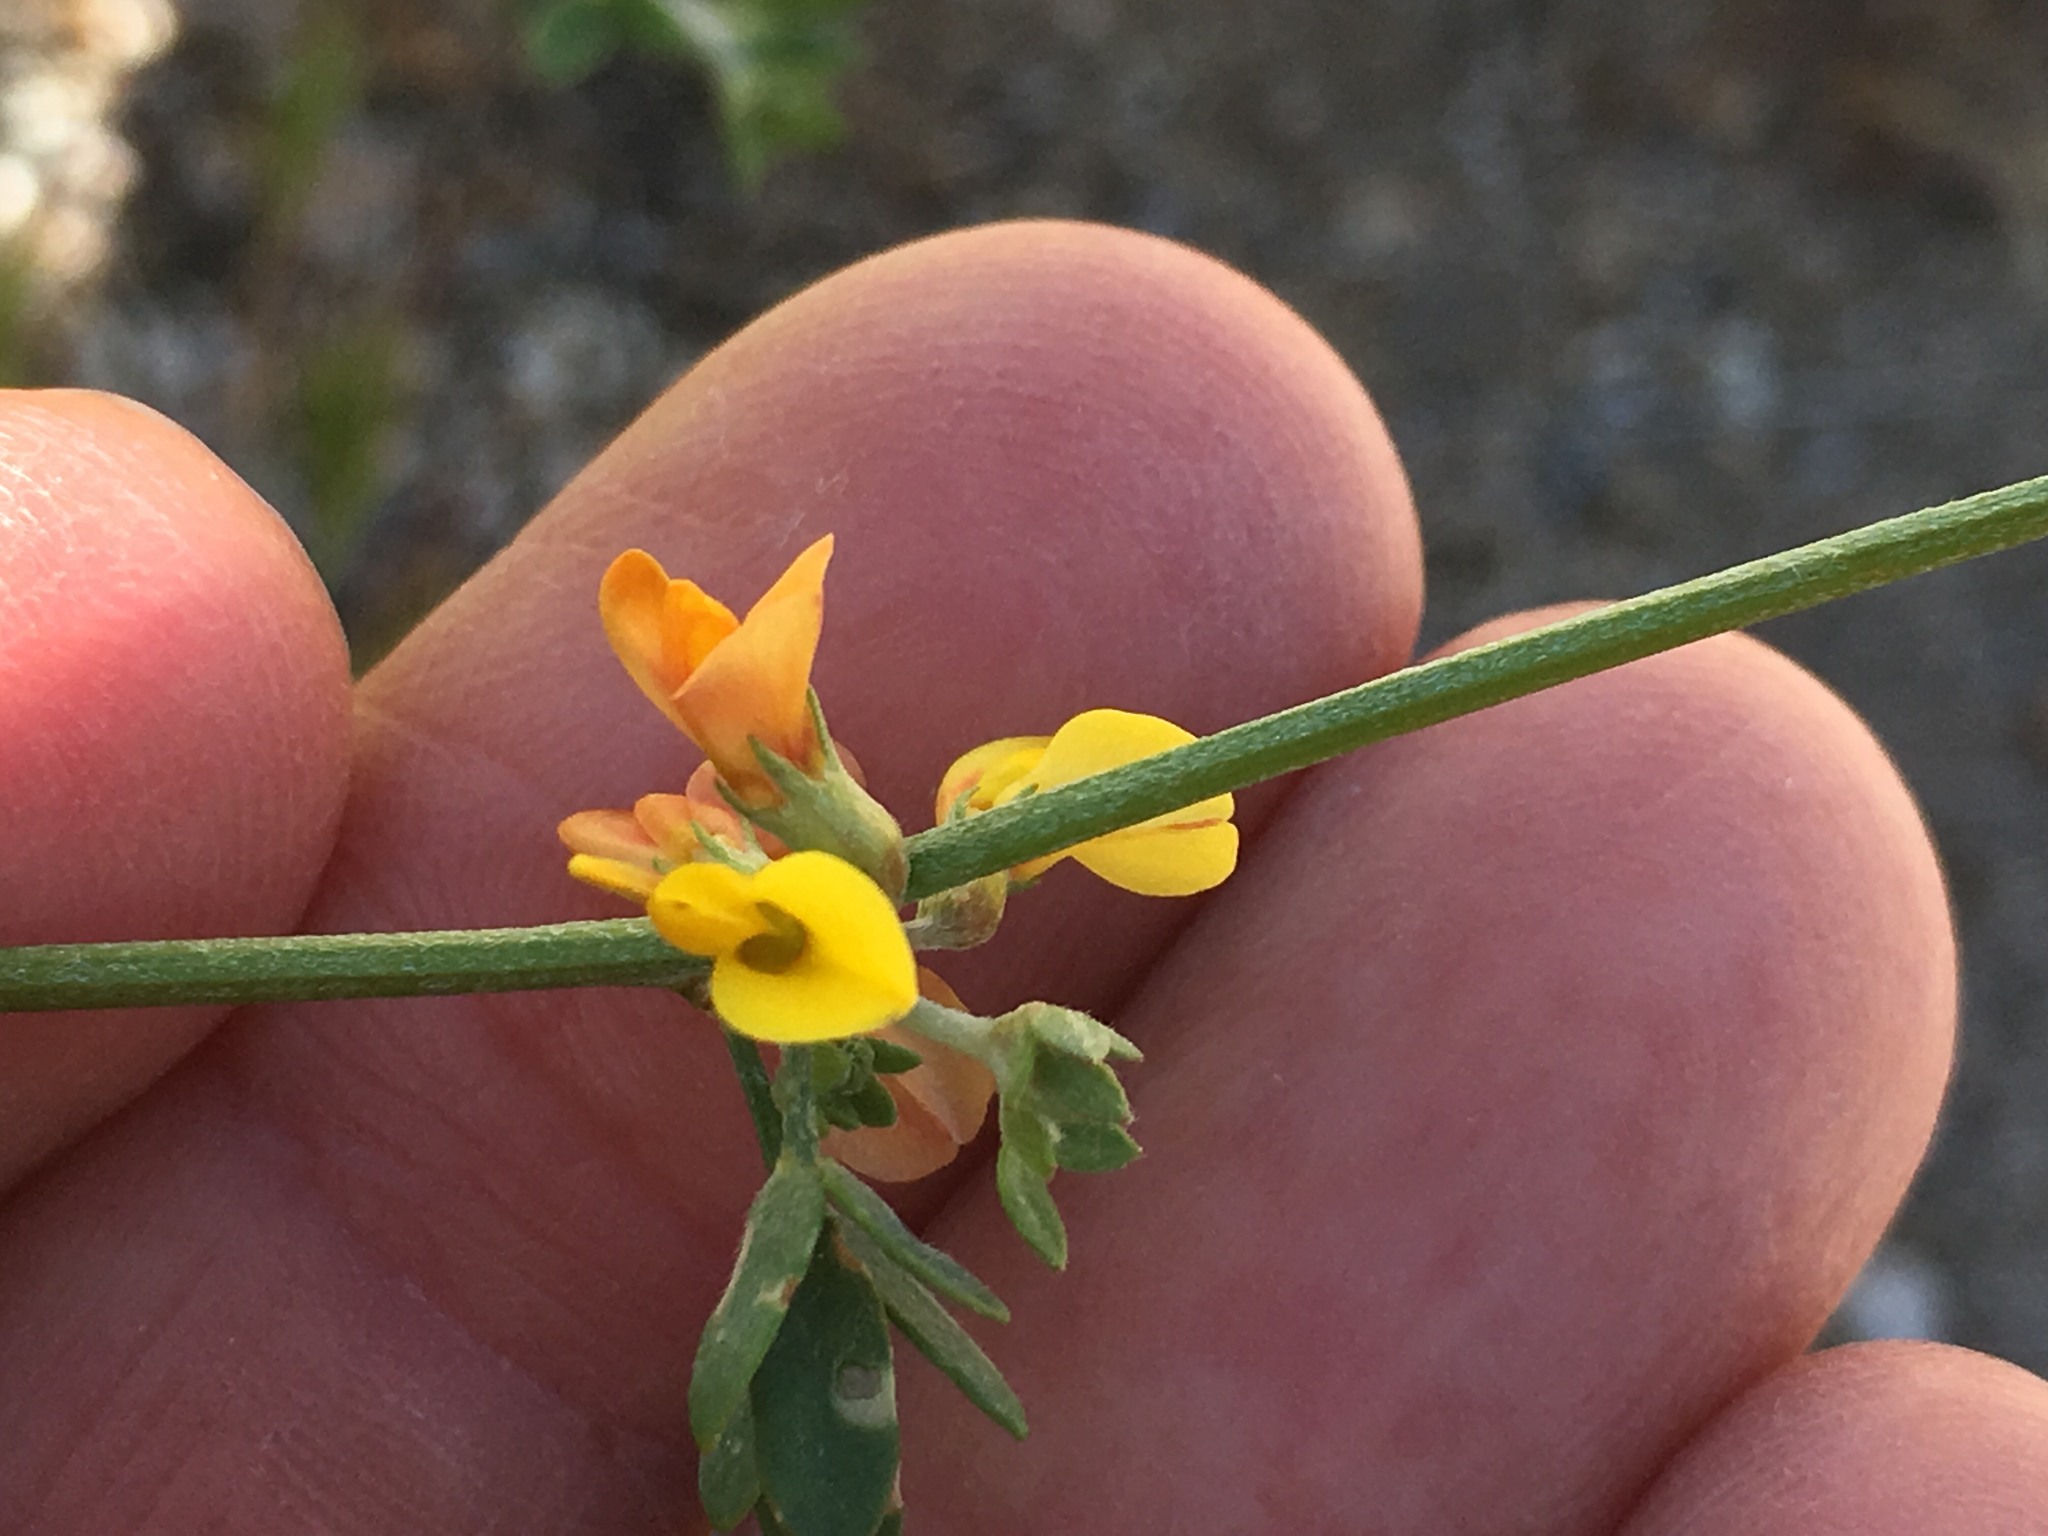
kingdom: Plantae
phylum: Tracheophyta
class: Magnoliopsida
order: Fabales
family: Fabaceae
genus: Acmispon
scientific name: Acmispon glaber
